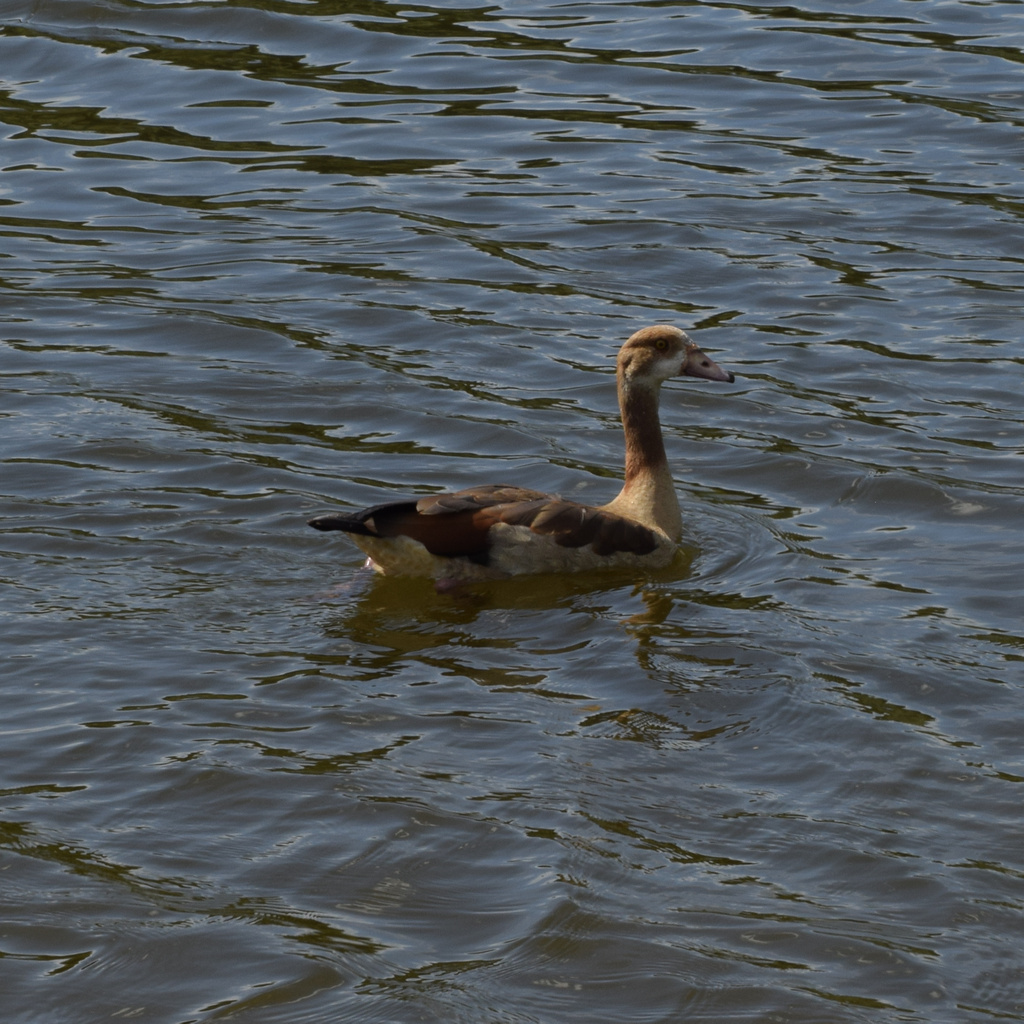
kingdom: Animalia
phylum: Chordata
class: Aves
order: Anseriformes
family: Anatidae
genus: Alopochen
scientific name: Alopochen aegyptiaca
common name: Egyptian goose
